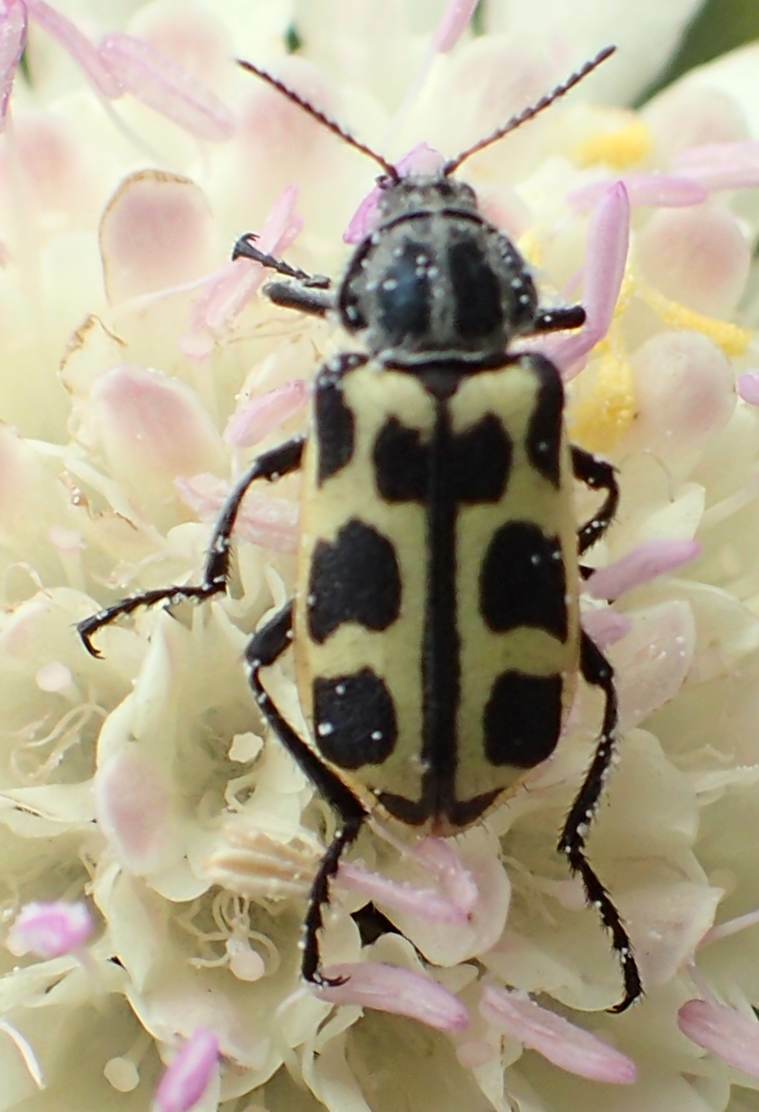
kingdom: Animalia
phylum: Arthropoda
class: Insecta
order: Coleoptera
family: Melyridae
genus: Astylus
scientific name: Astylus atromaculatus
